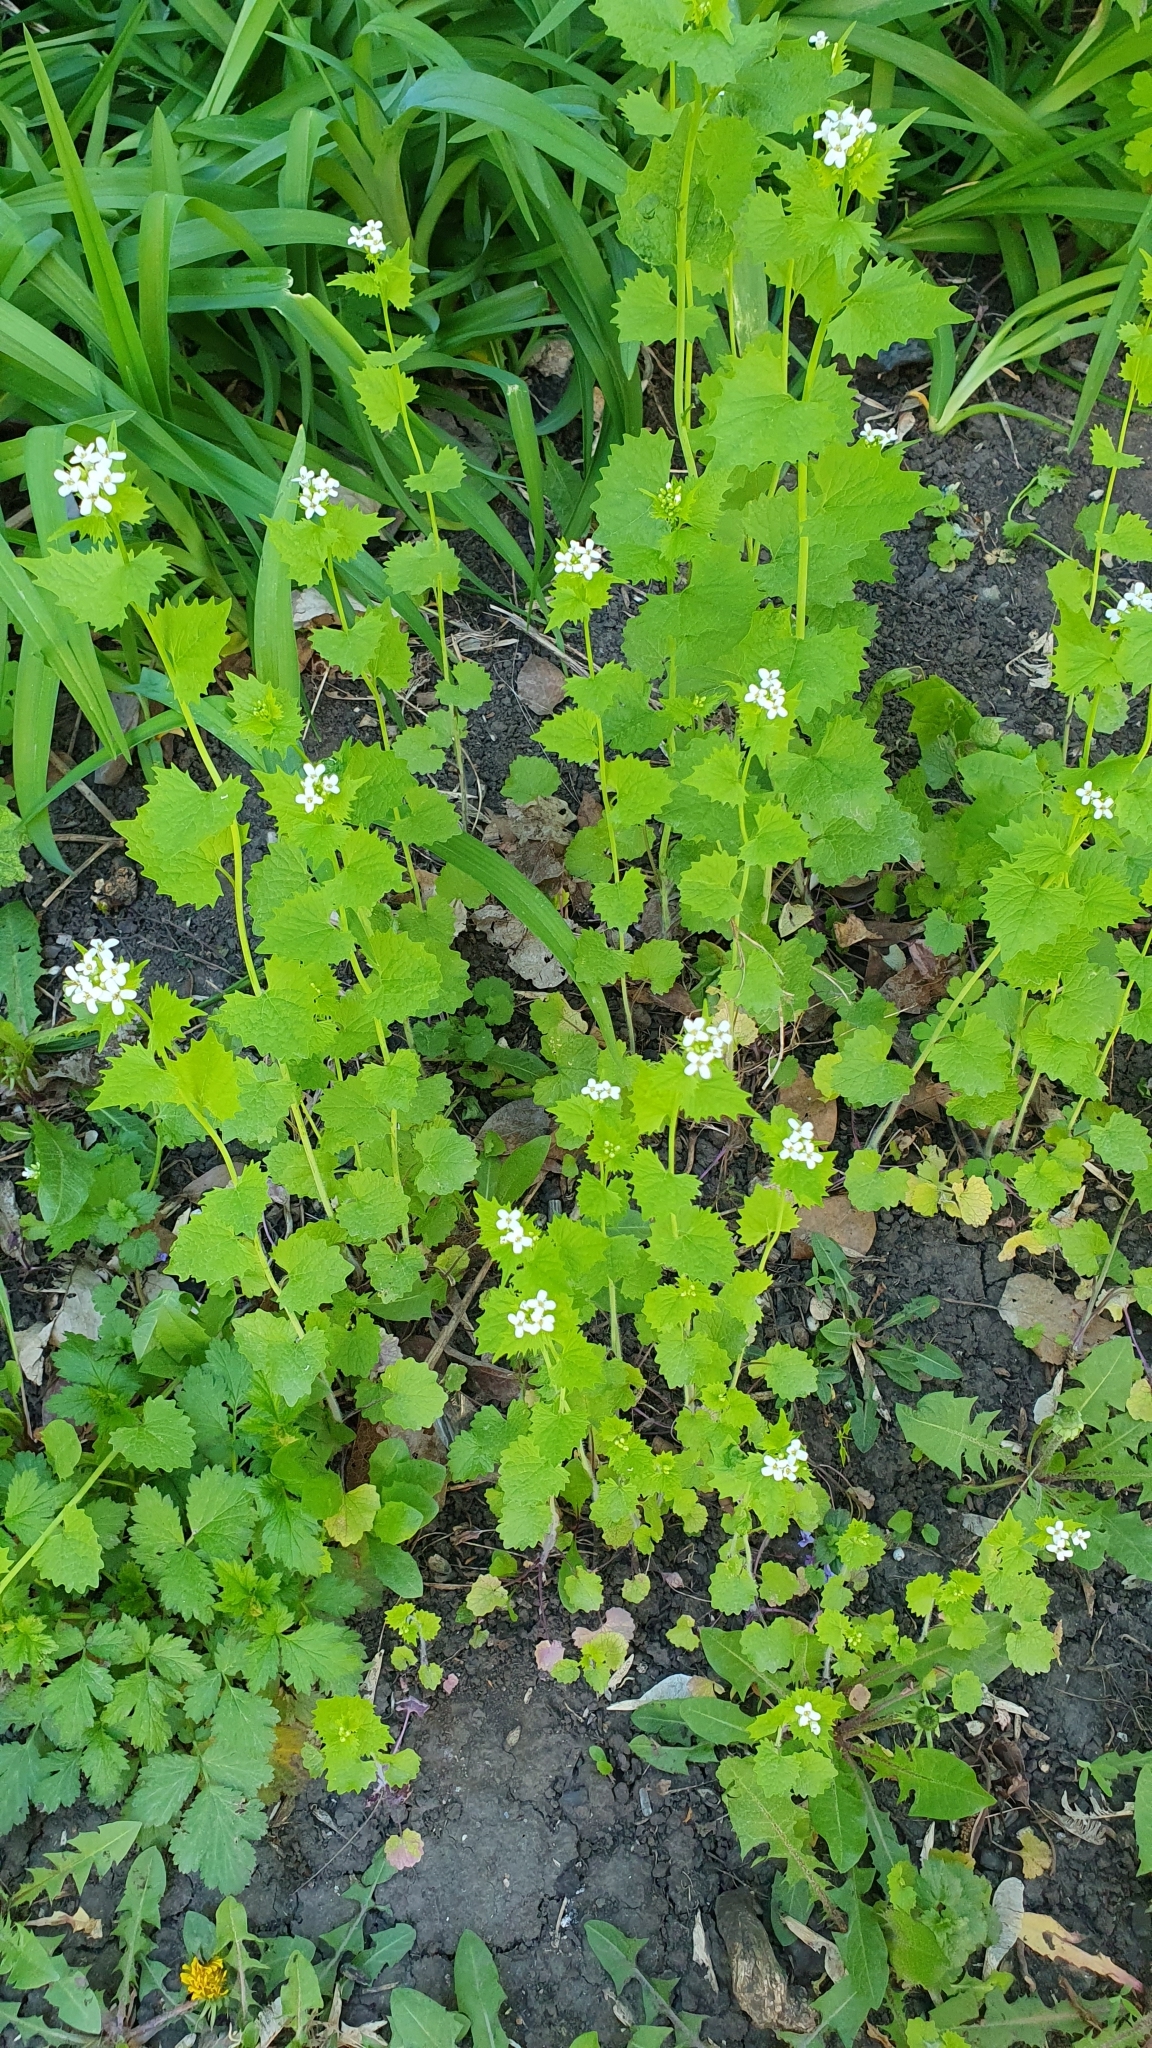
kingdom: Plantae
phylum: Tracheophyta
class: Magnoliopsida
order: Brassicales
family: Brassicaceae
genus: Alliaria
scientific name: Alliaria petiolata
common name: Garlic mustard
